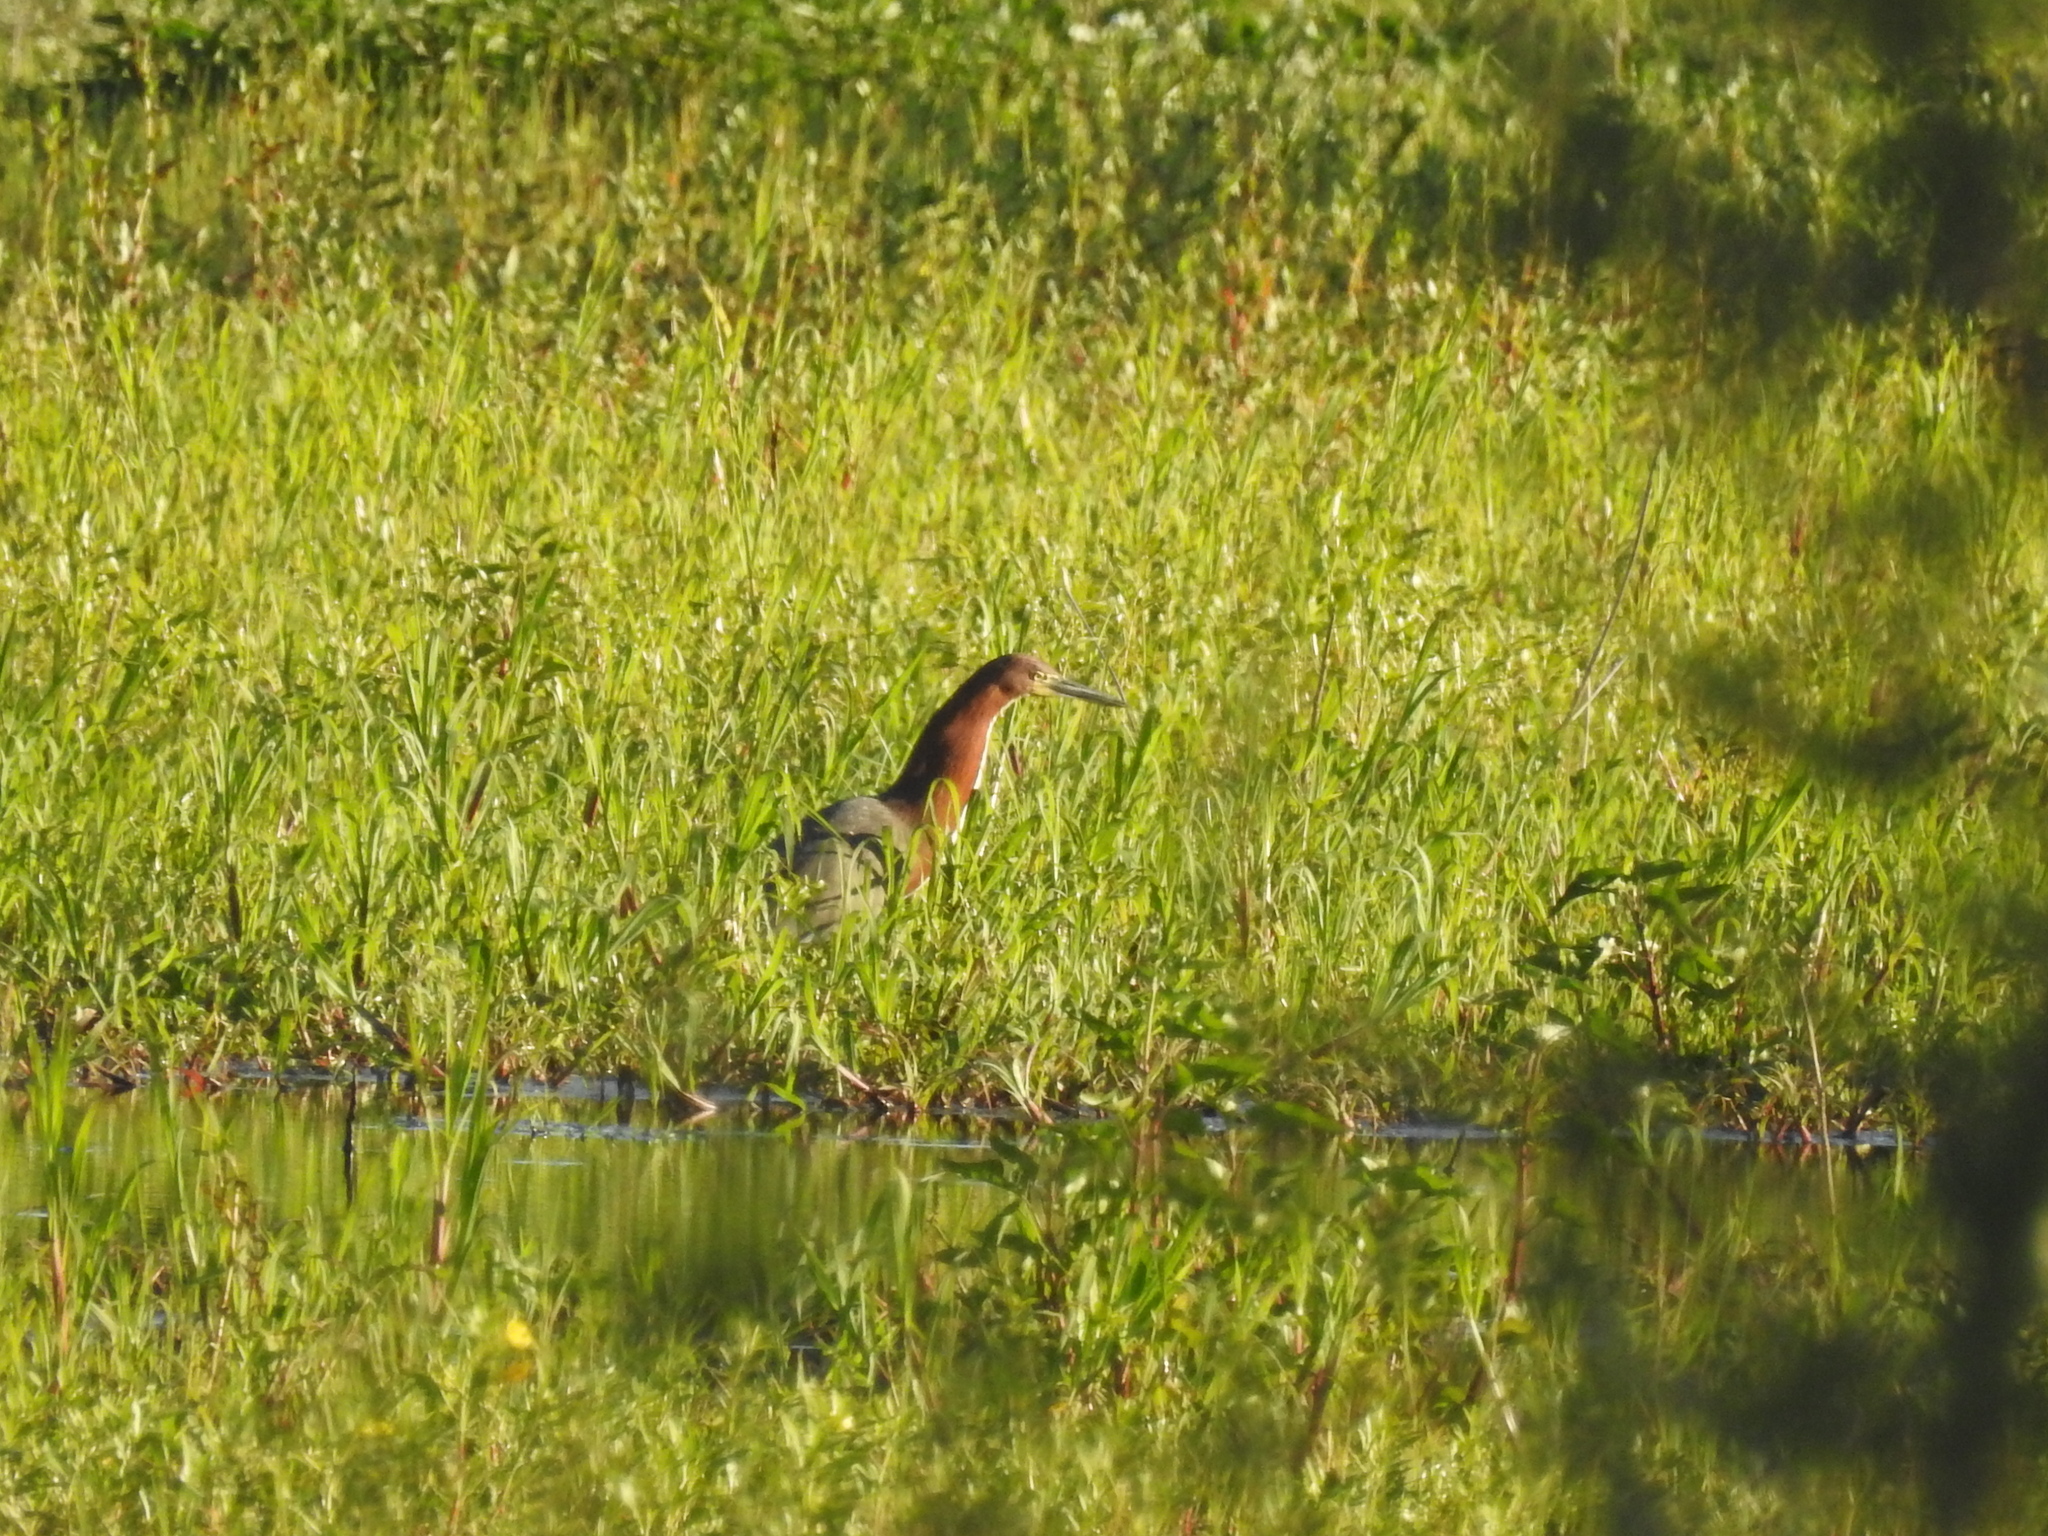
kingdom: Animalia
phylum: Chordata
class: Aves
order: Pelecaniformes
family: Ardeidae
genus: Tigrisoma
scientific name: Tigrisoma lineatum
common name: Rufescent tiger-heron
